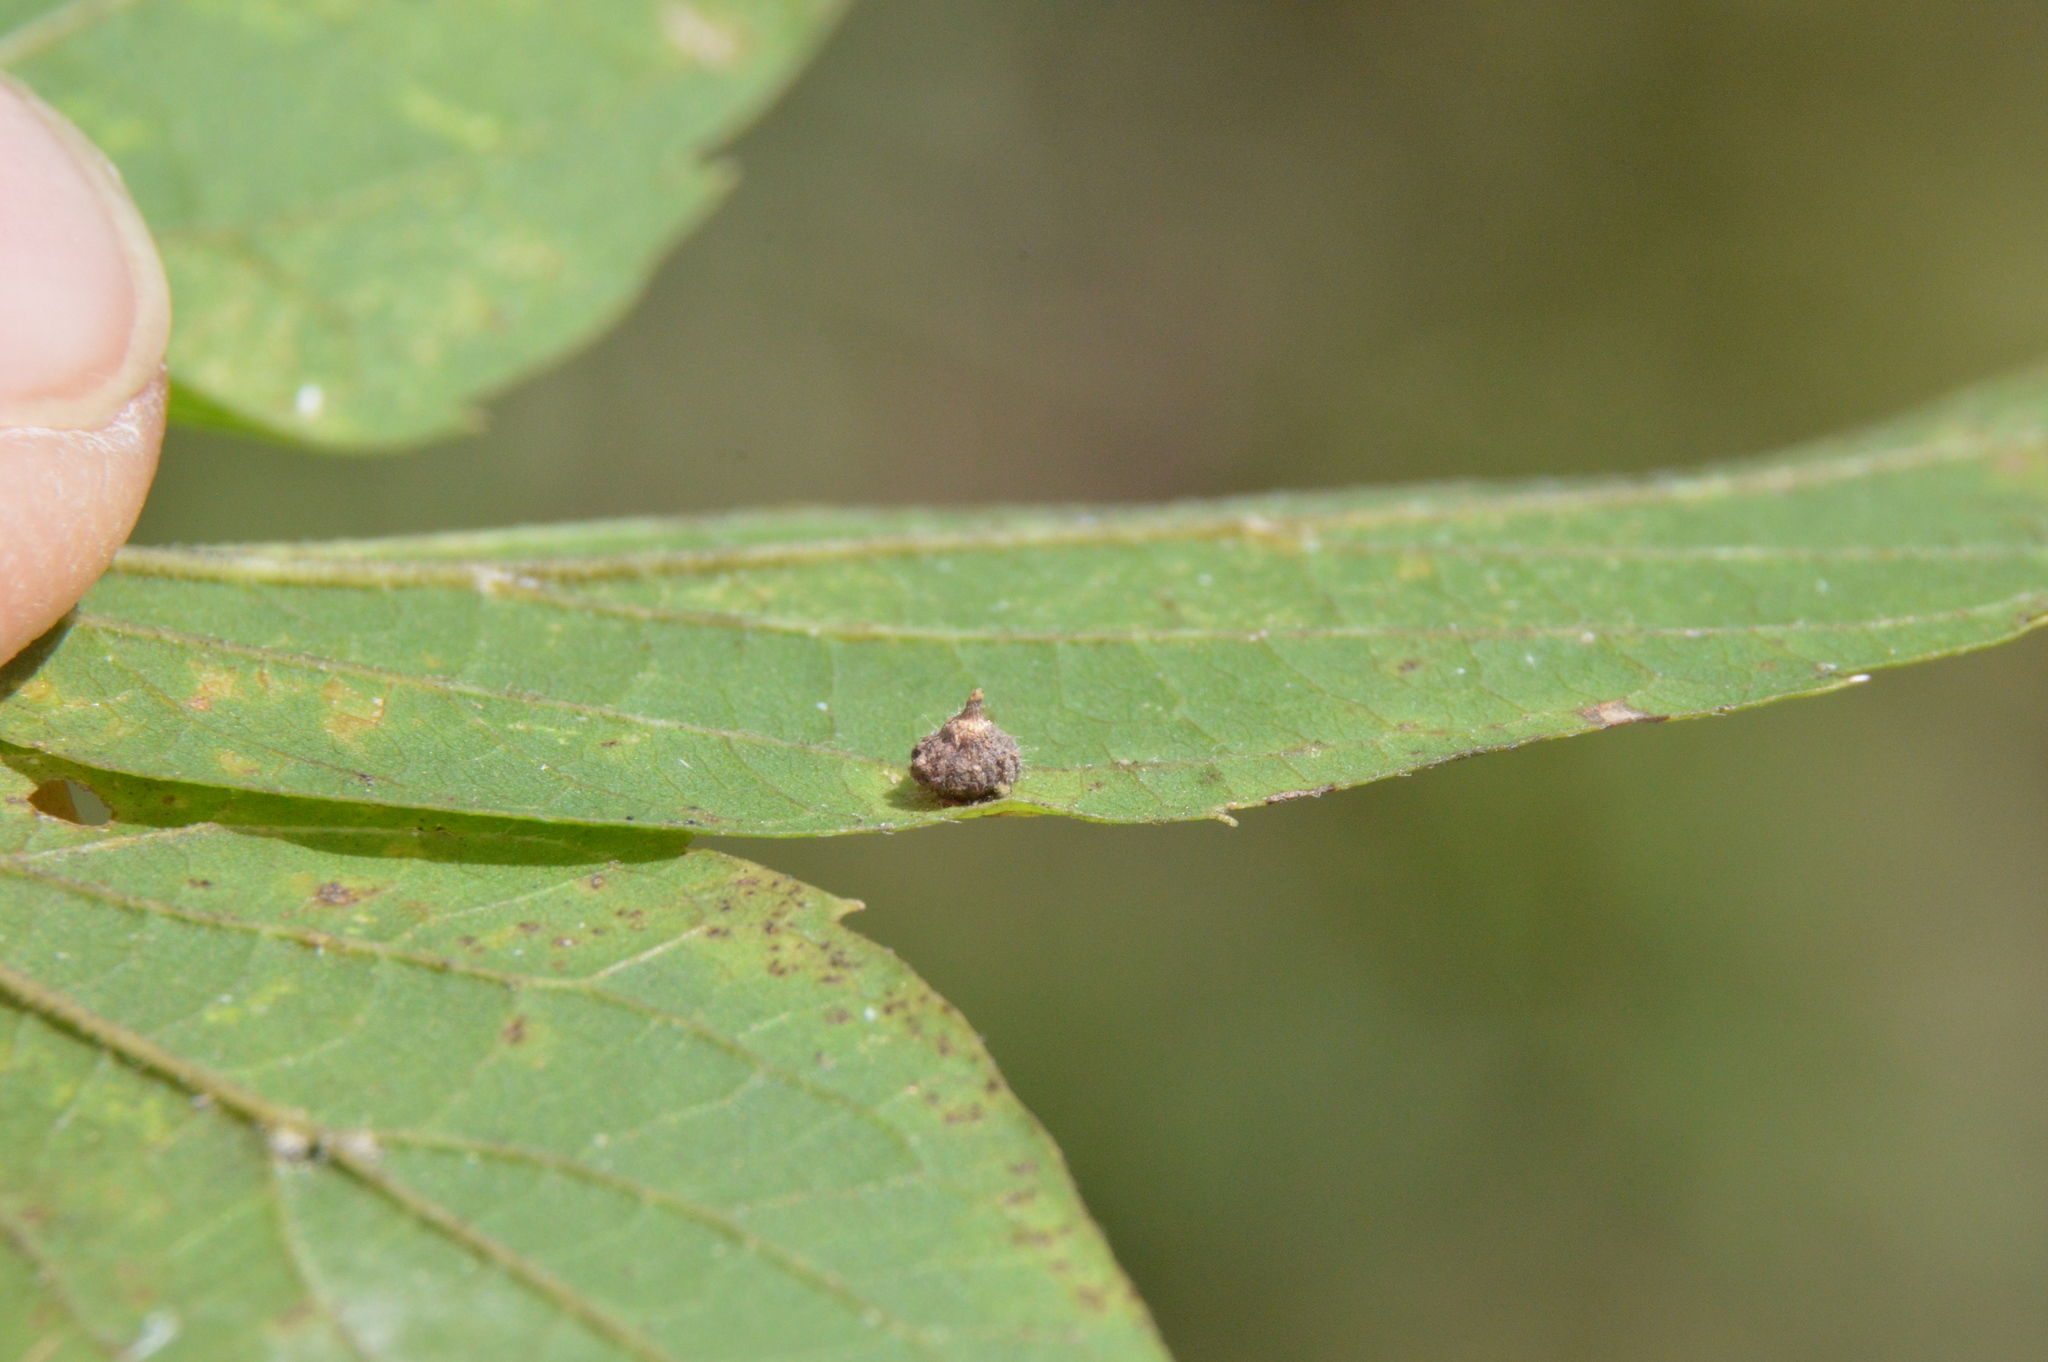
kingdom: Animalia
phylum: Arthropoda
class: Insecta
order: Diptera
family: Cecidomyiidae
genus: Celticecis
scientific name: Celticecis capsularis
